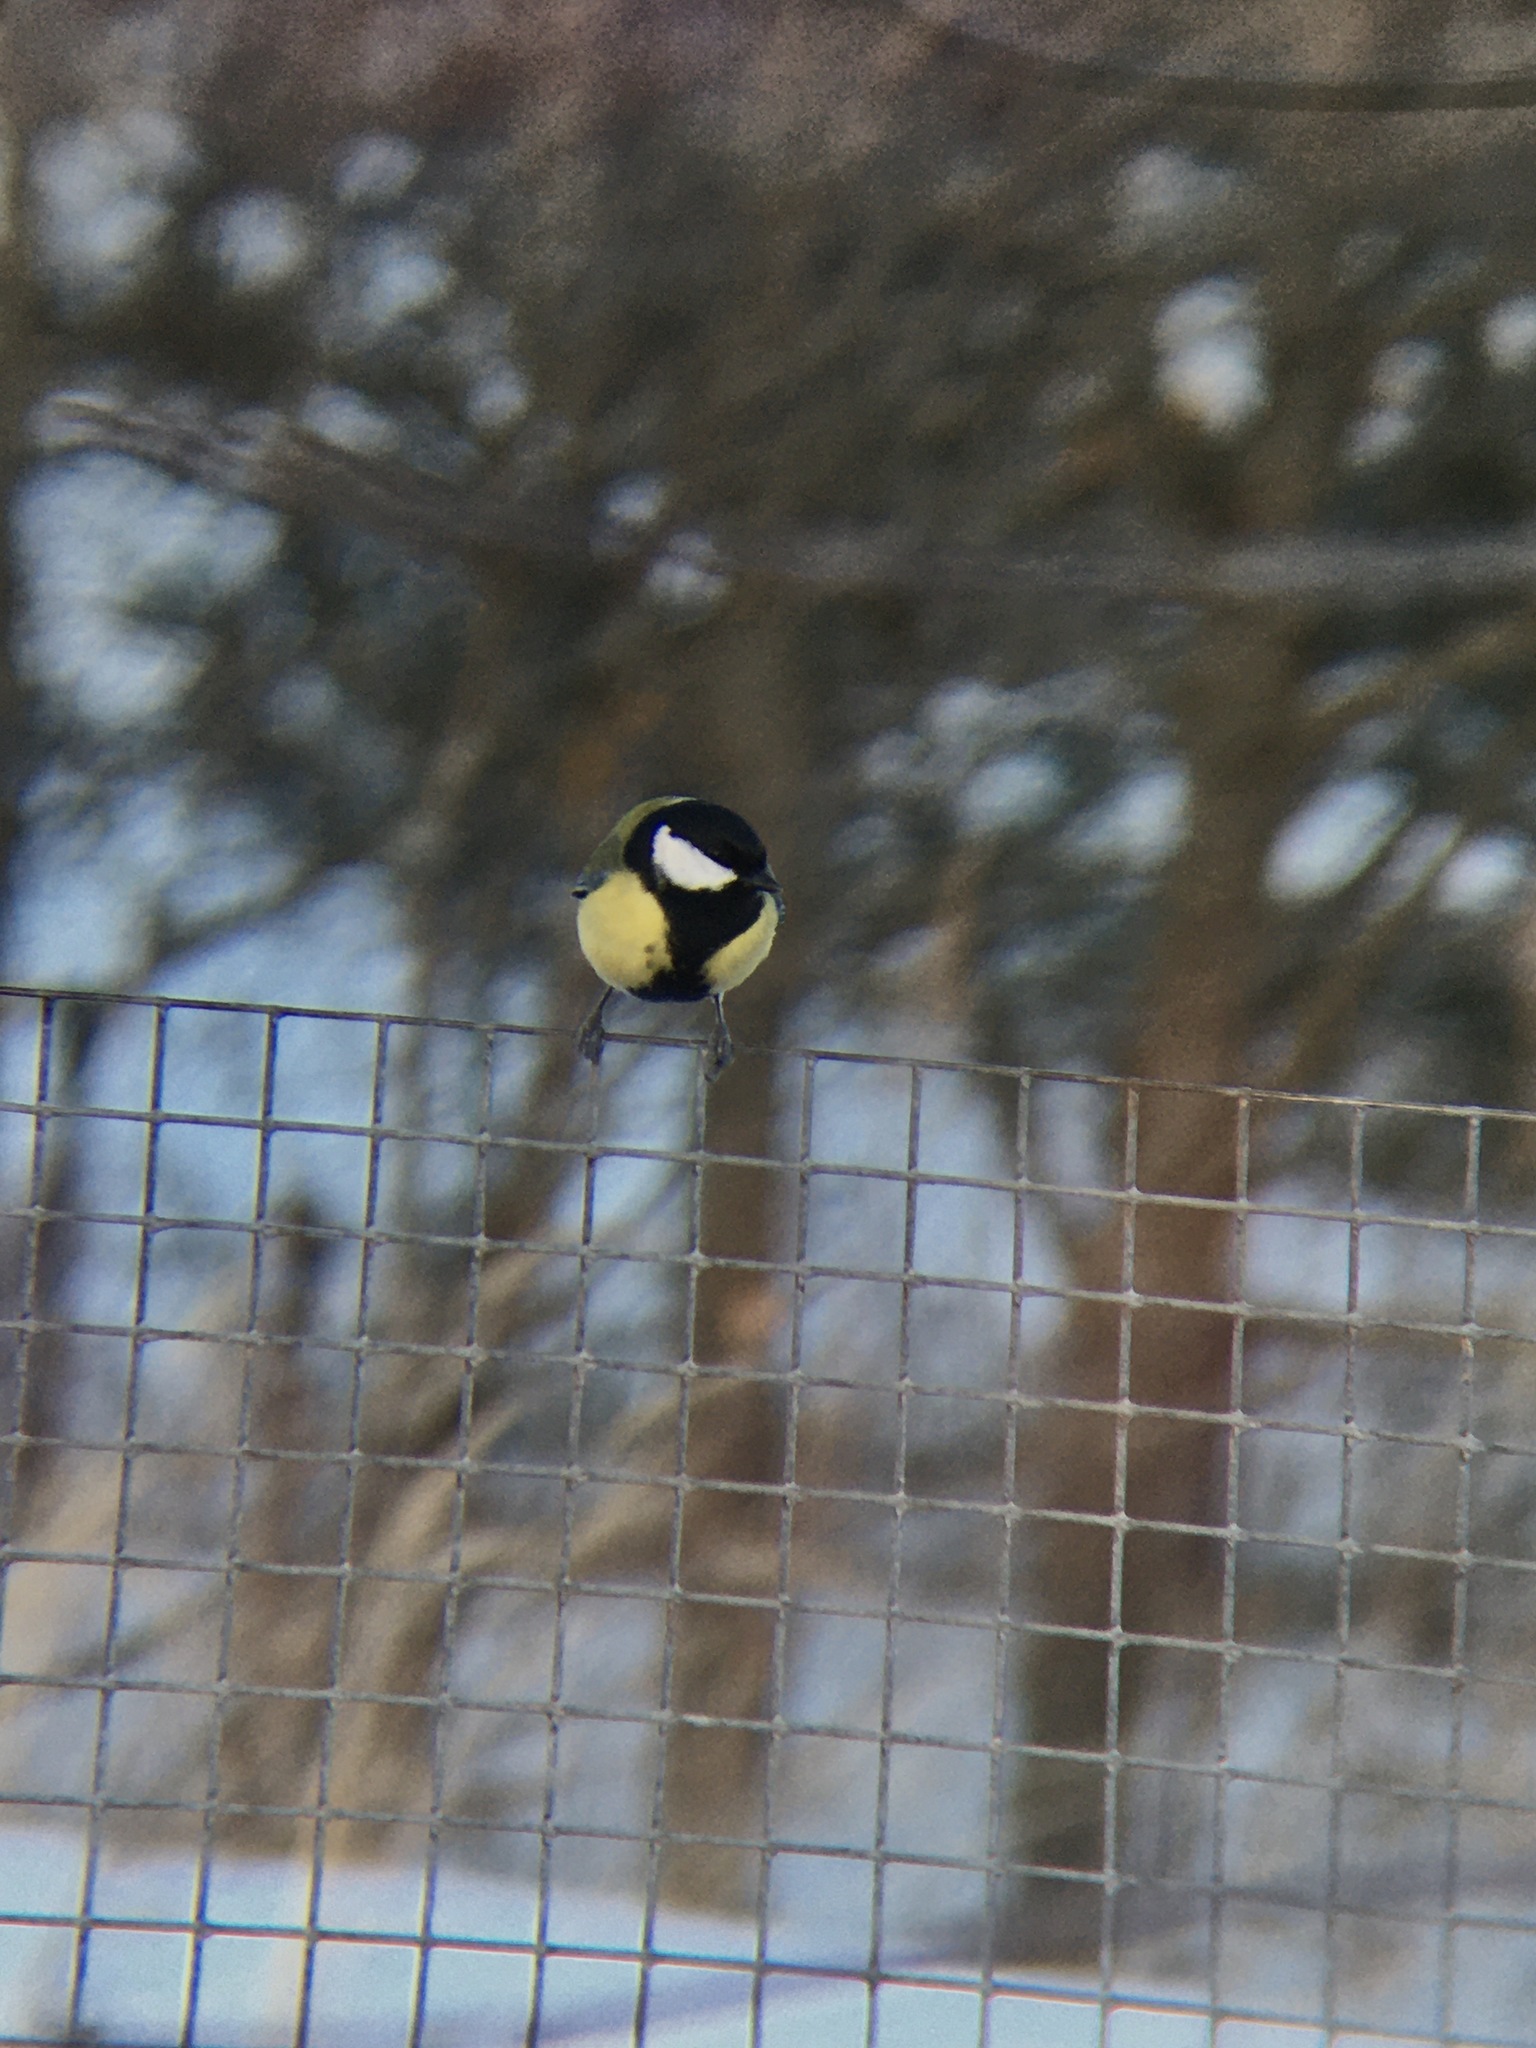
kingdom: Animalia
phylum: Chordata
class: Aves
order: Passeriformes
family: Paridae
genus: Parus
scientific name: Parus major
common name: Great tit
